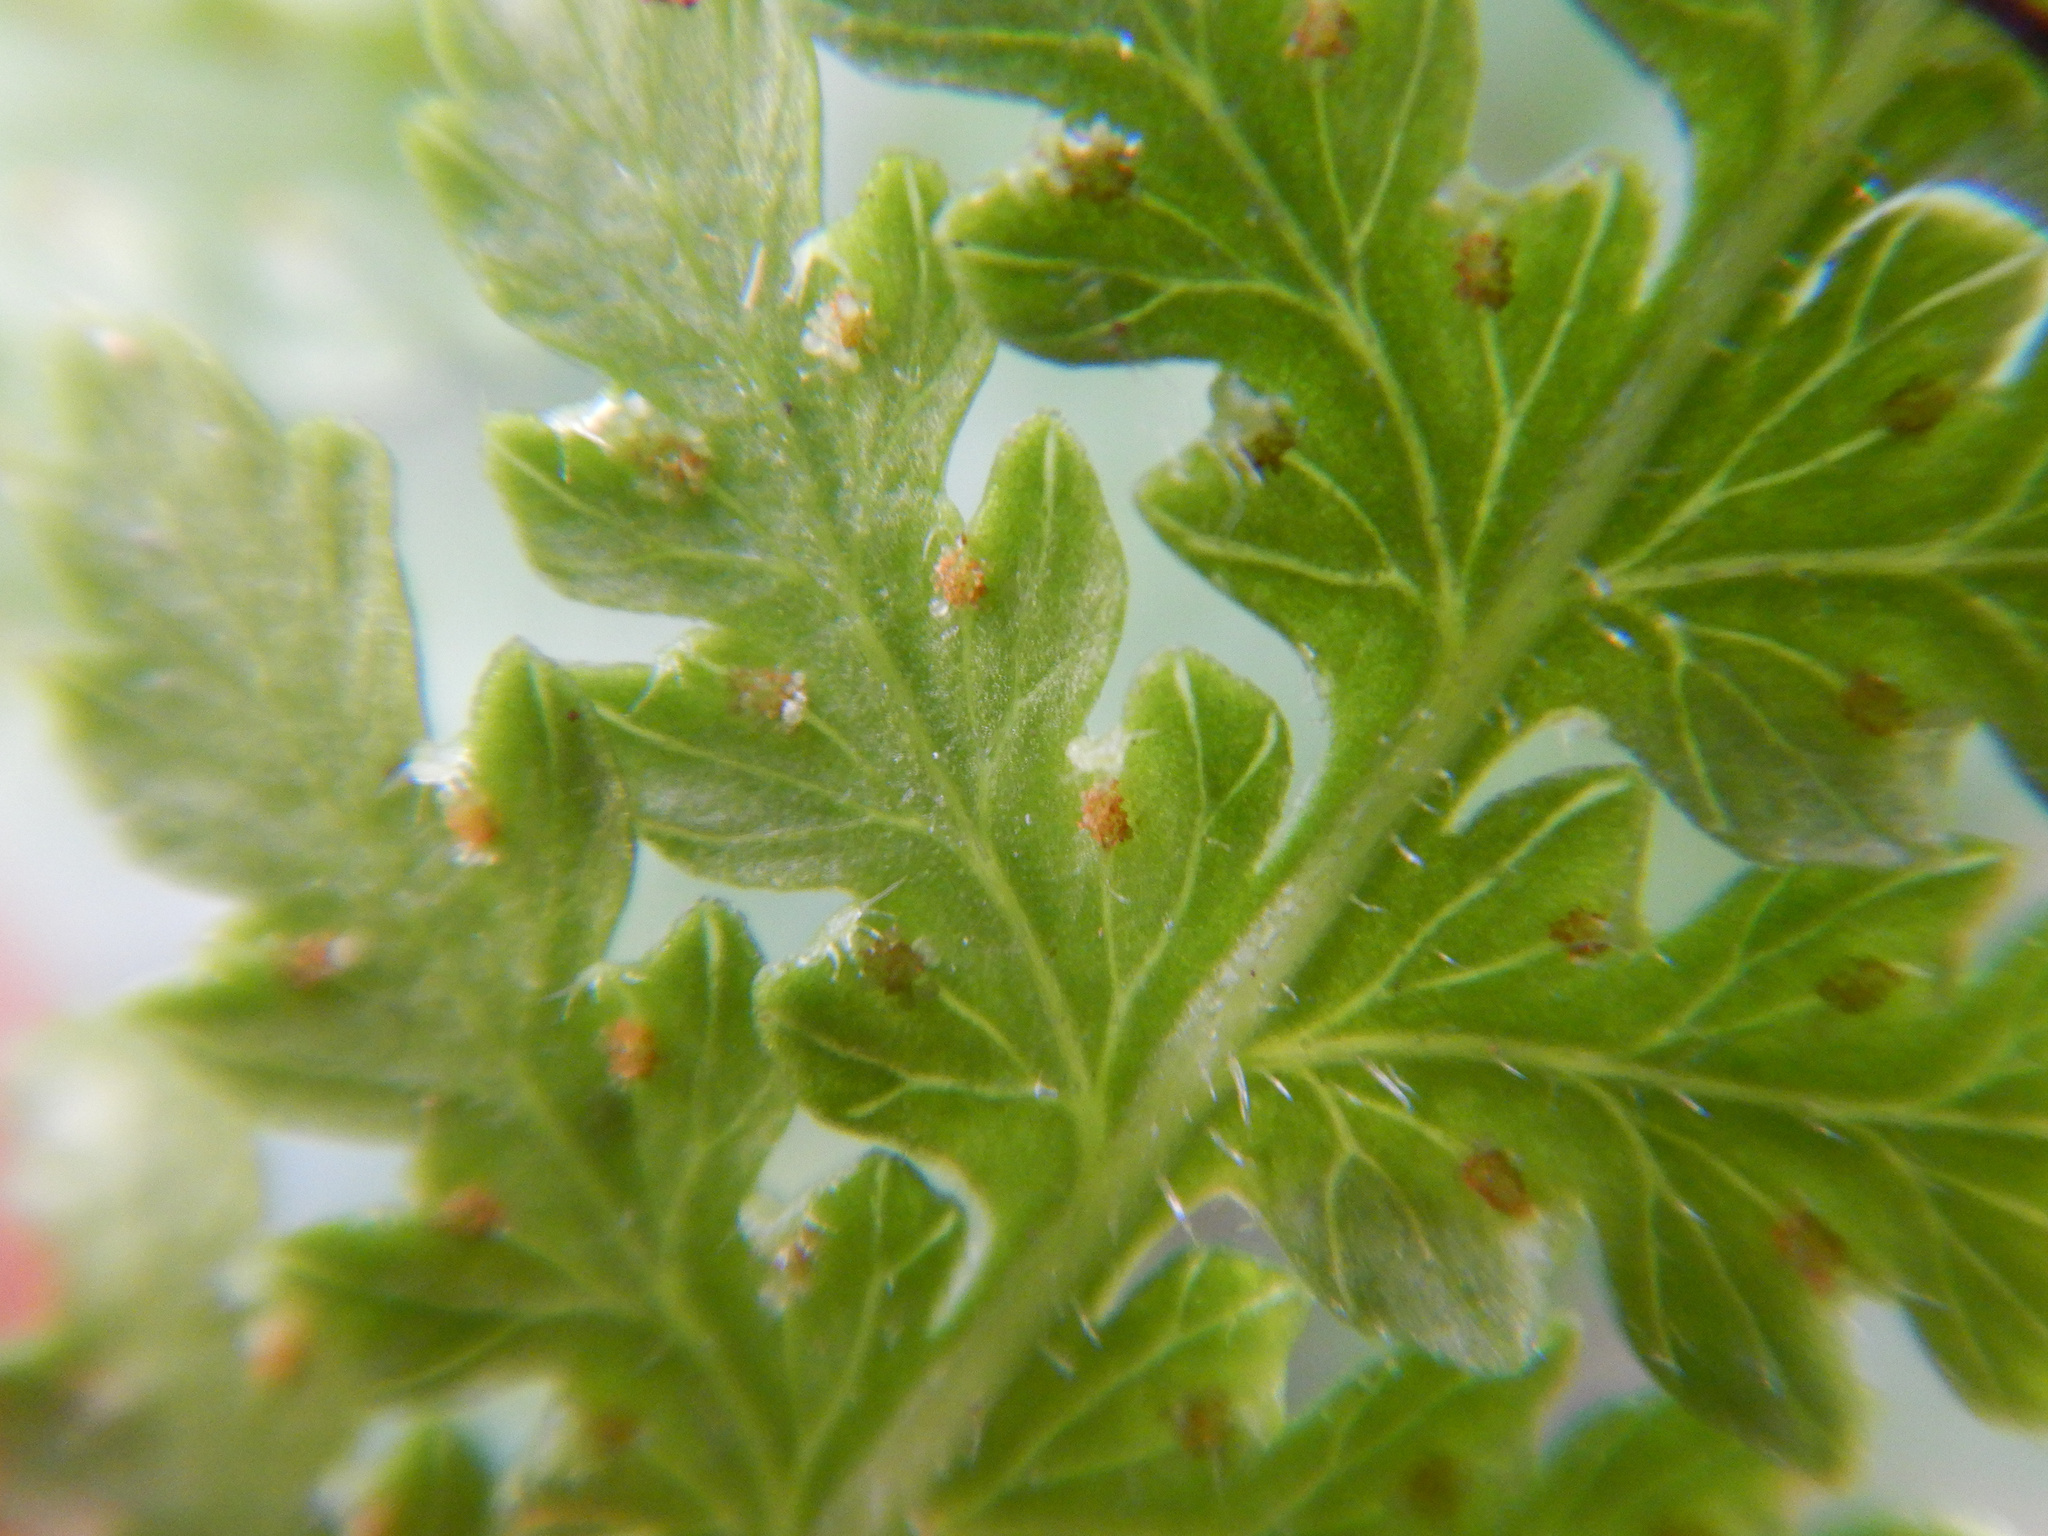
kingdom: Plantae
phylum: Tracheophyta
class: Polypodiopsida
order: Polypodiales
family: Dennstaedtiaceae
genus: Hypolepis
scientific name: Hypolepis ambigua
